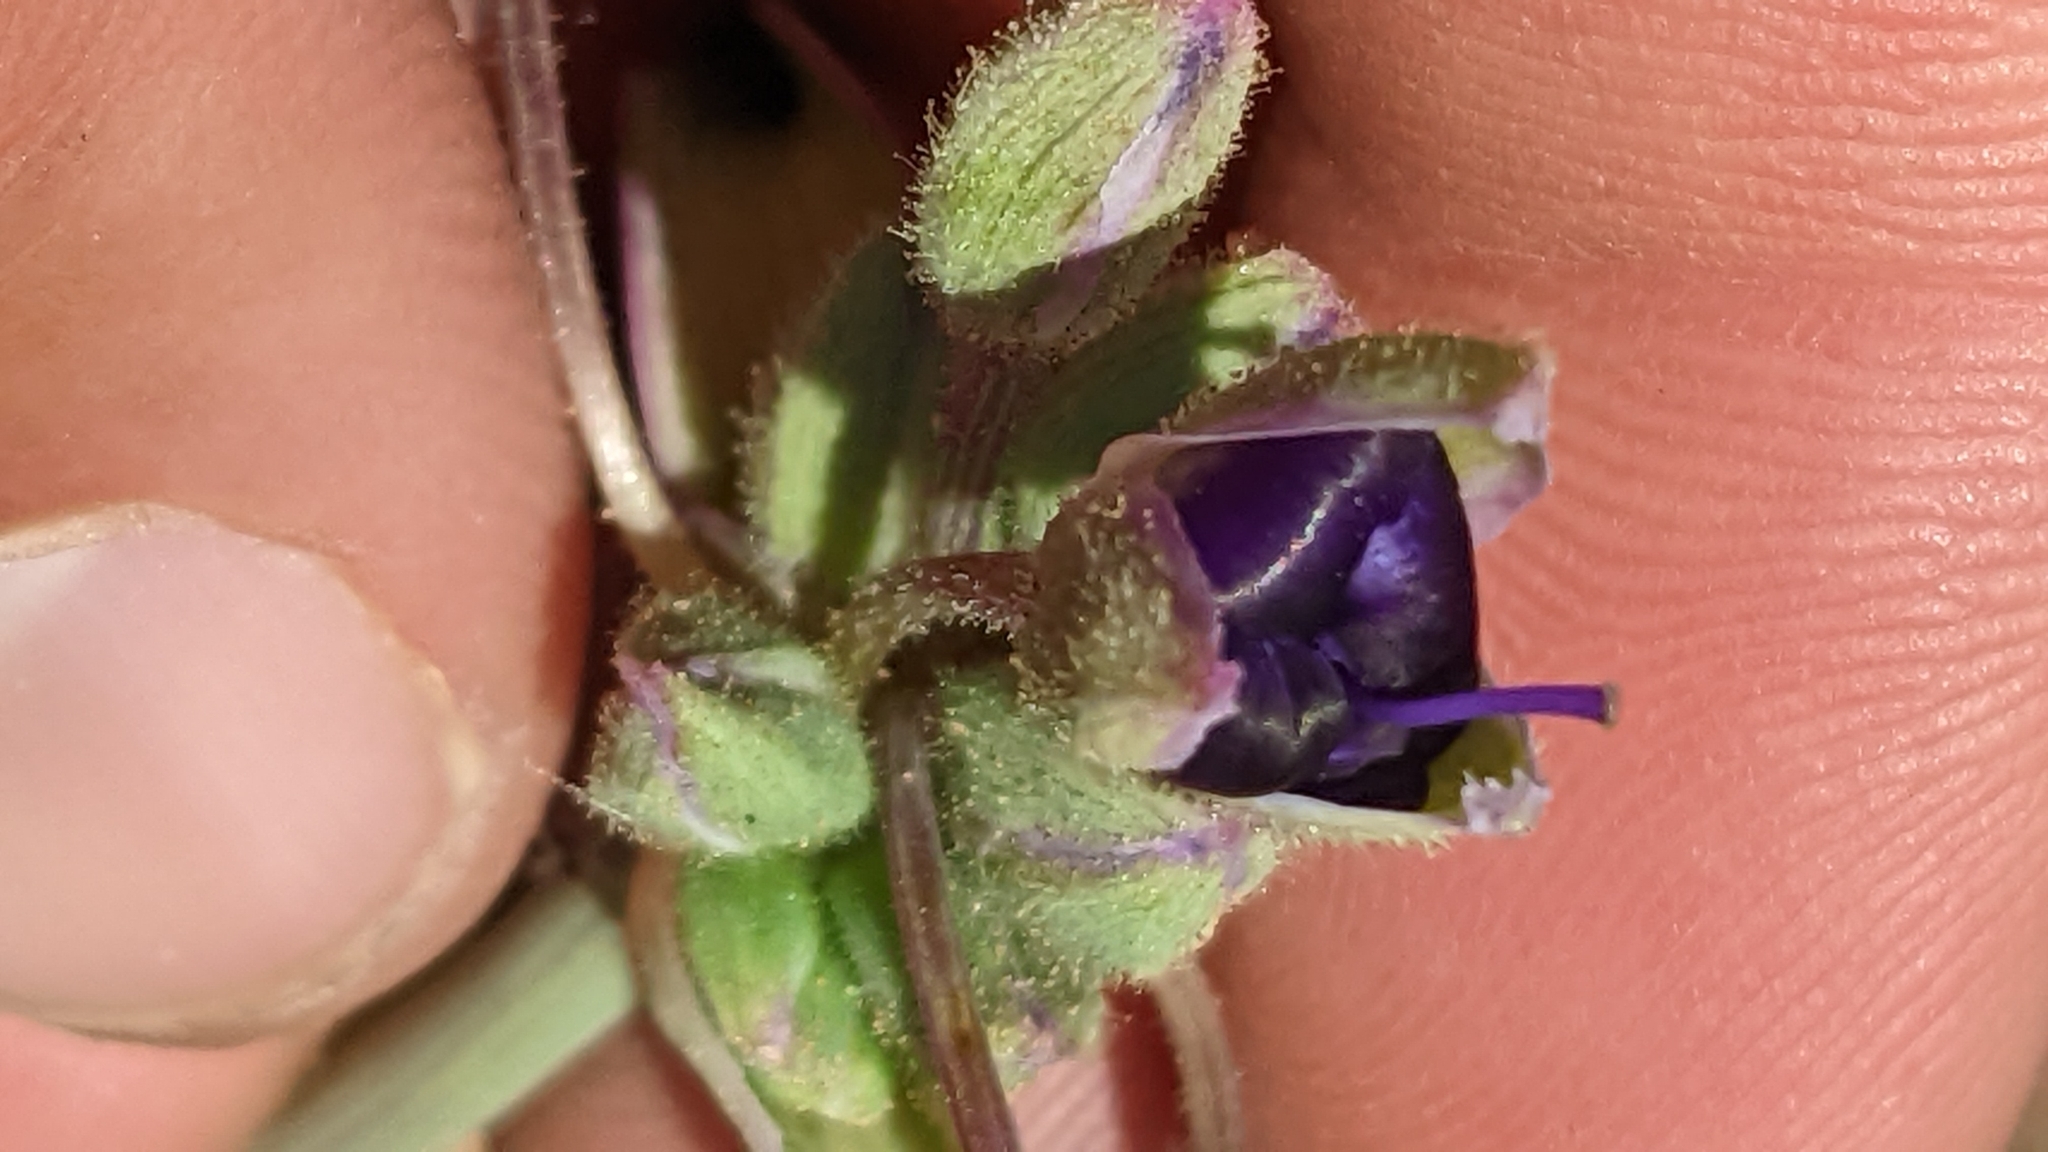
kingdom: Plantae
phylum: Tracheophyta
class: Liliopsida
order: Commelinales
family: Commelinaceae
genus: Tradescantia
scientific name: Tradescantia occidentalis
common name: Prairie spiderwort
